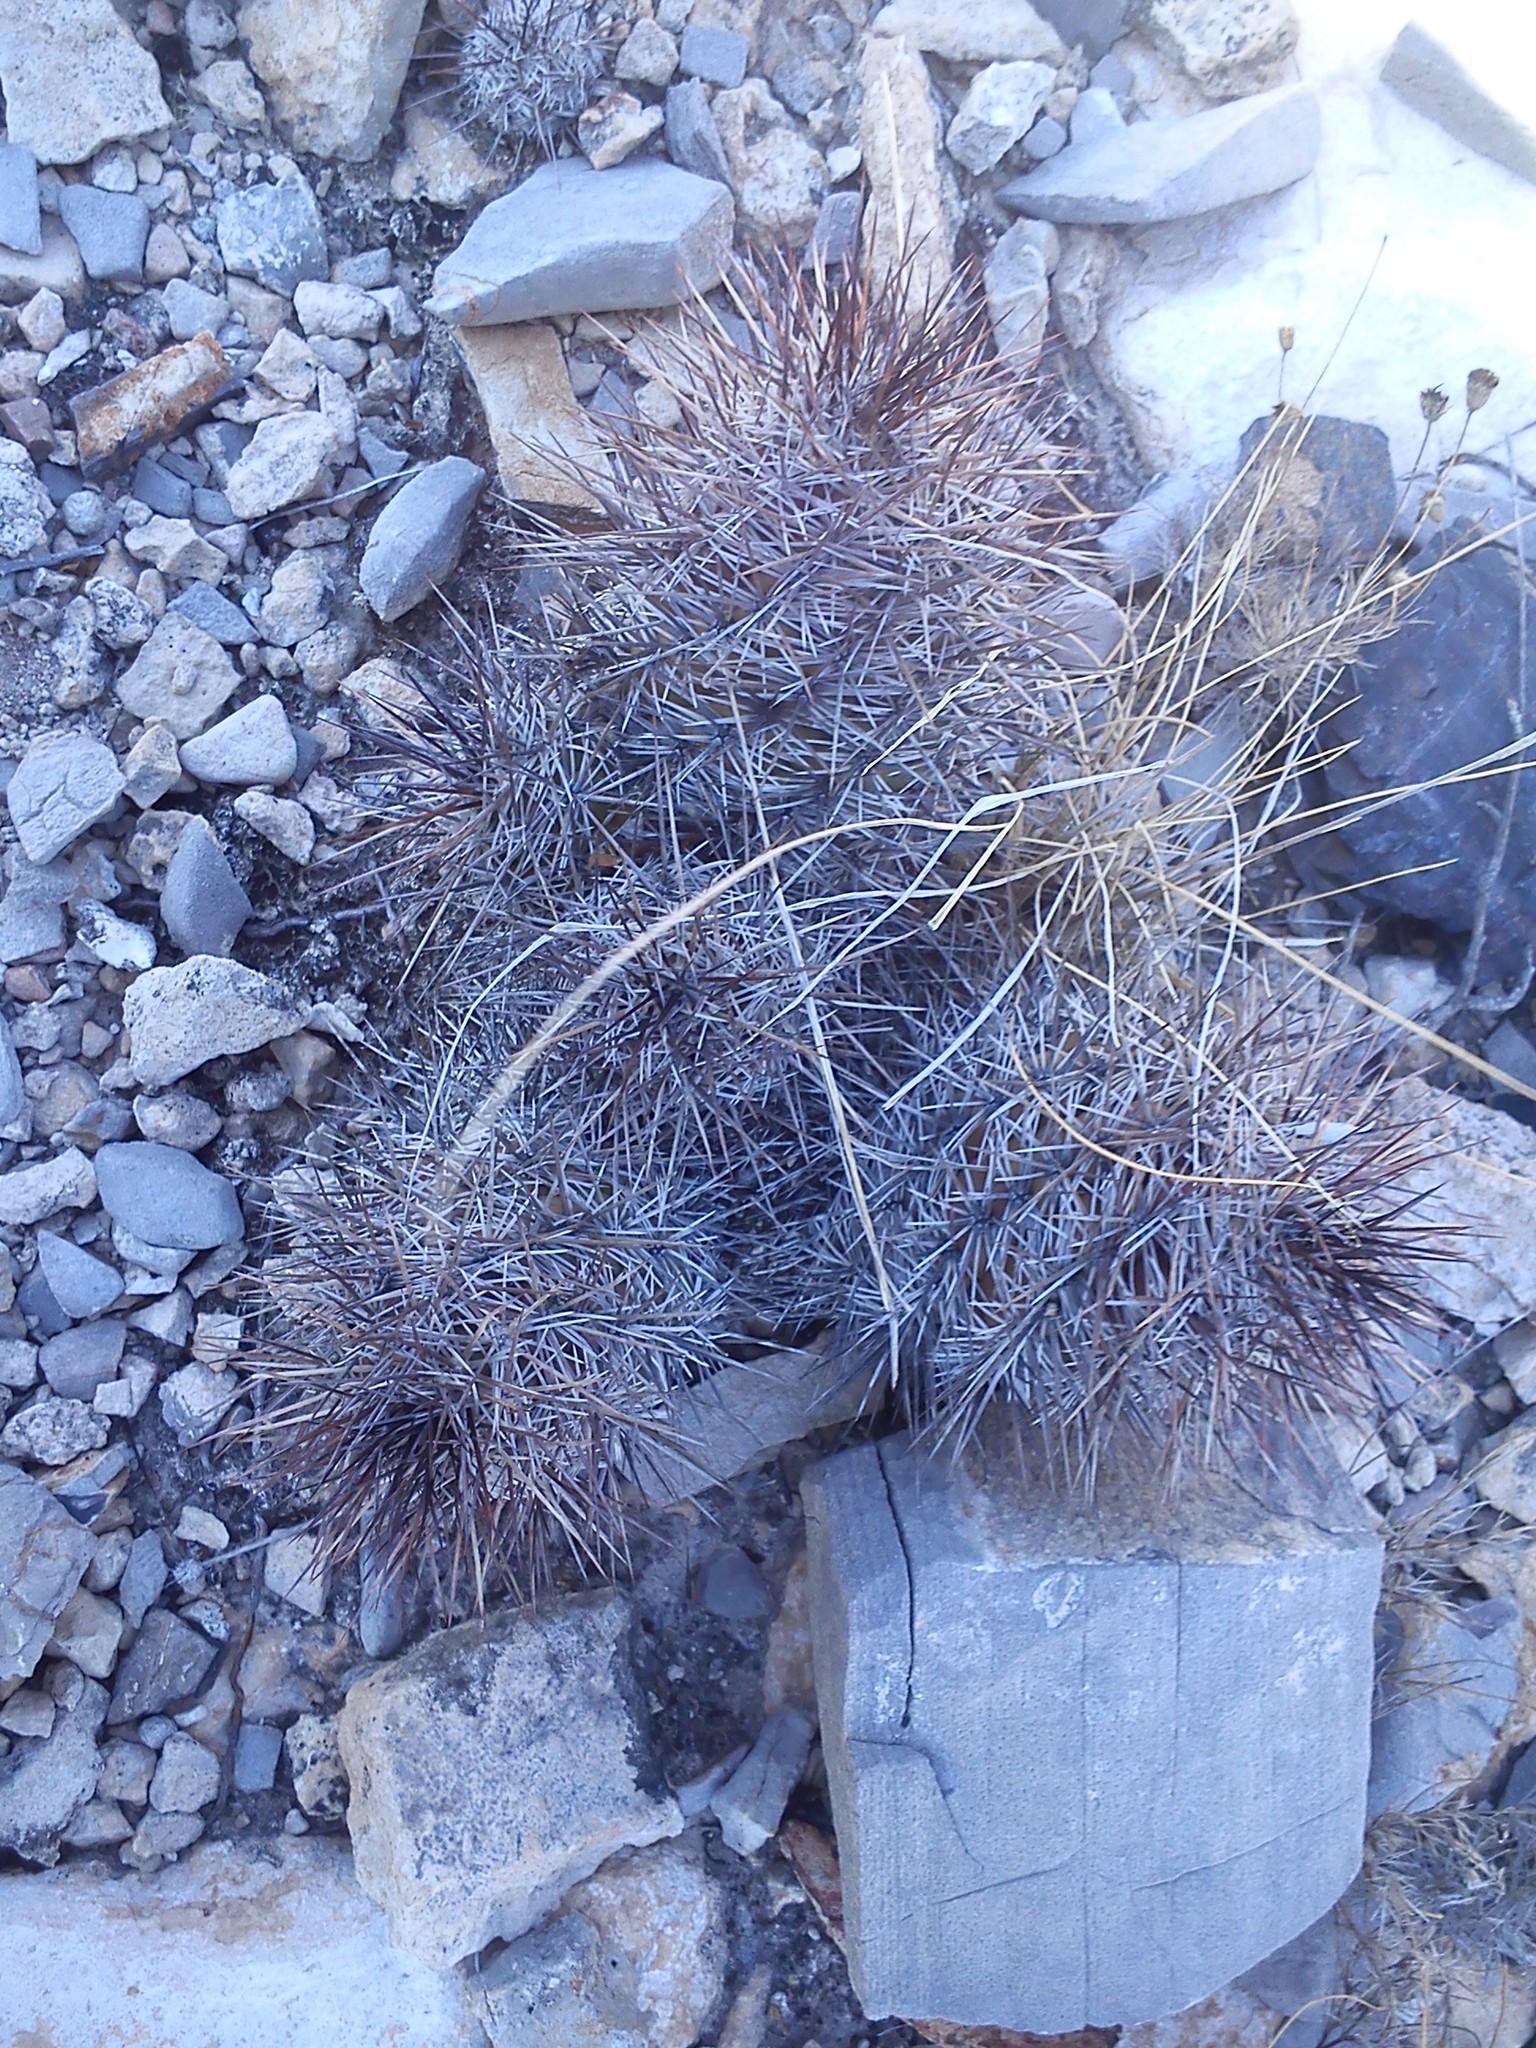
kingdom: Plantae
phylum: Tracheophyta
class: Magnoliopsida
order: Caryophyllales
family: Cactaceae
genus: Cochemiea
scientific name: Cochemiea conoidea
